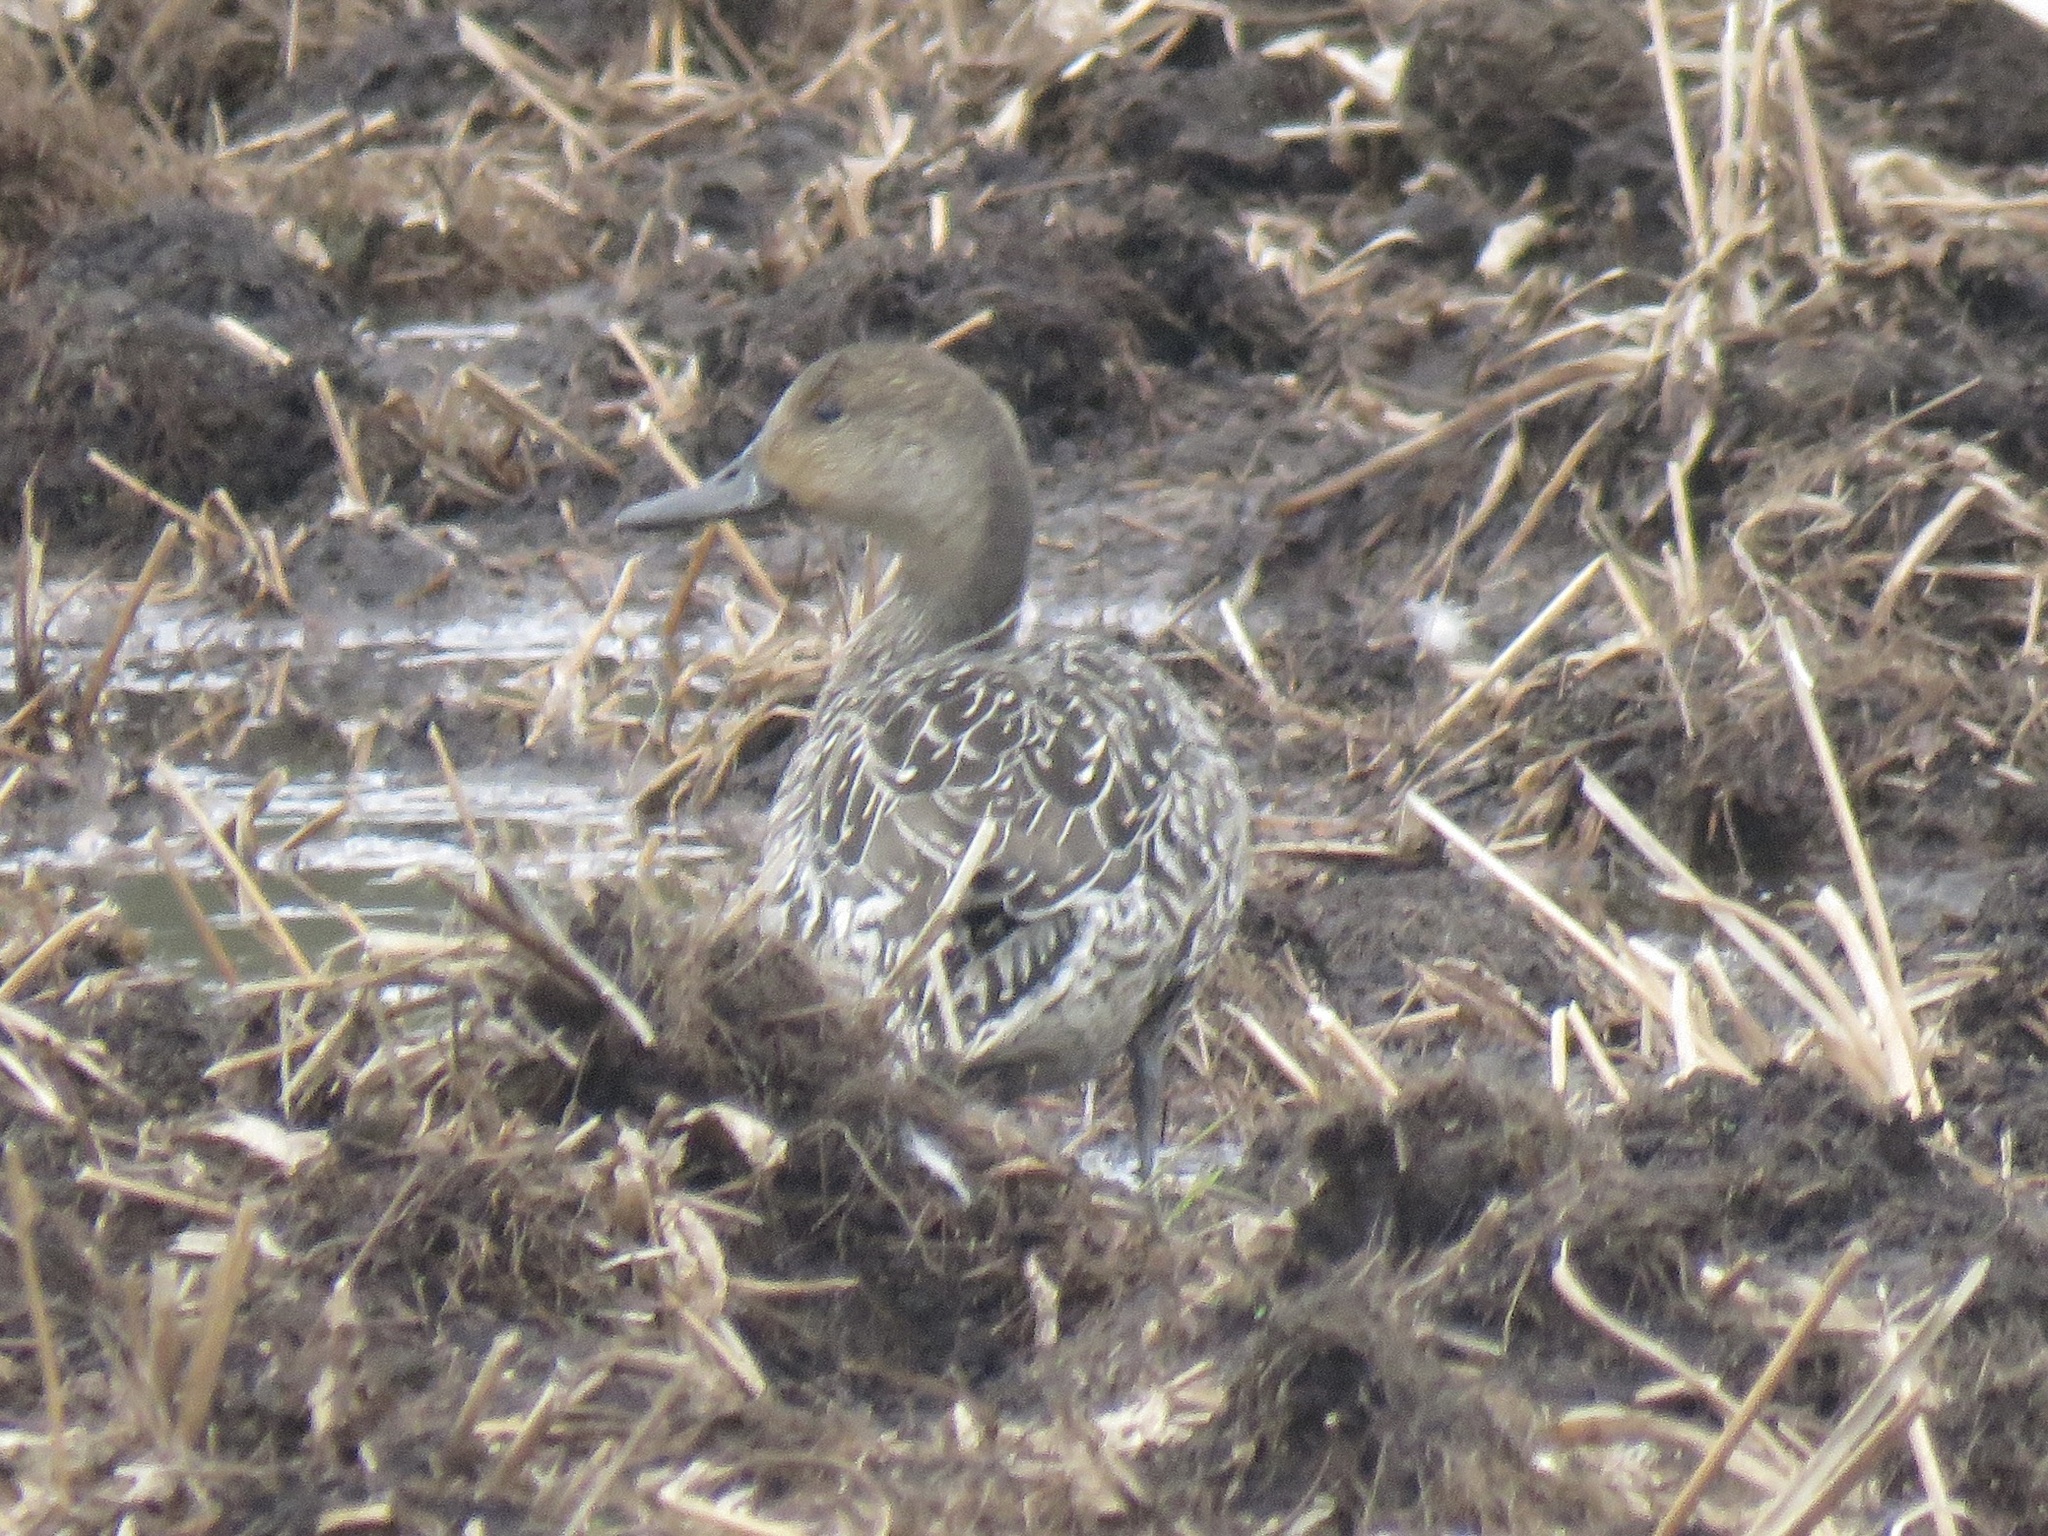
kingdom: Animalia
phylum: Chordata
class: Aves
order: Anseriformes
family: Anatidae
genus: Anas
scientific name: Anas acuta
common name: Northern pintail
